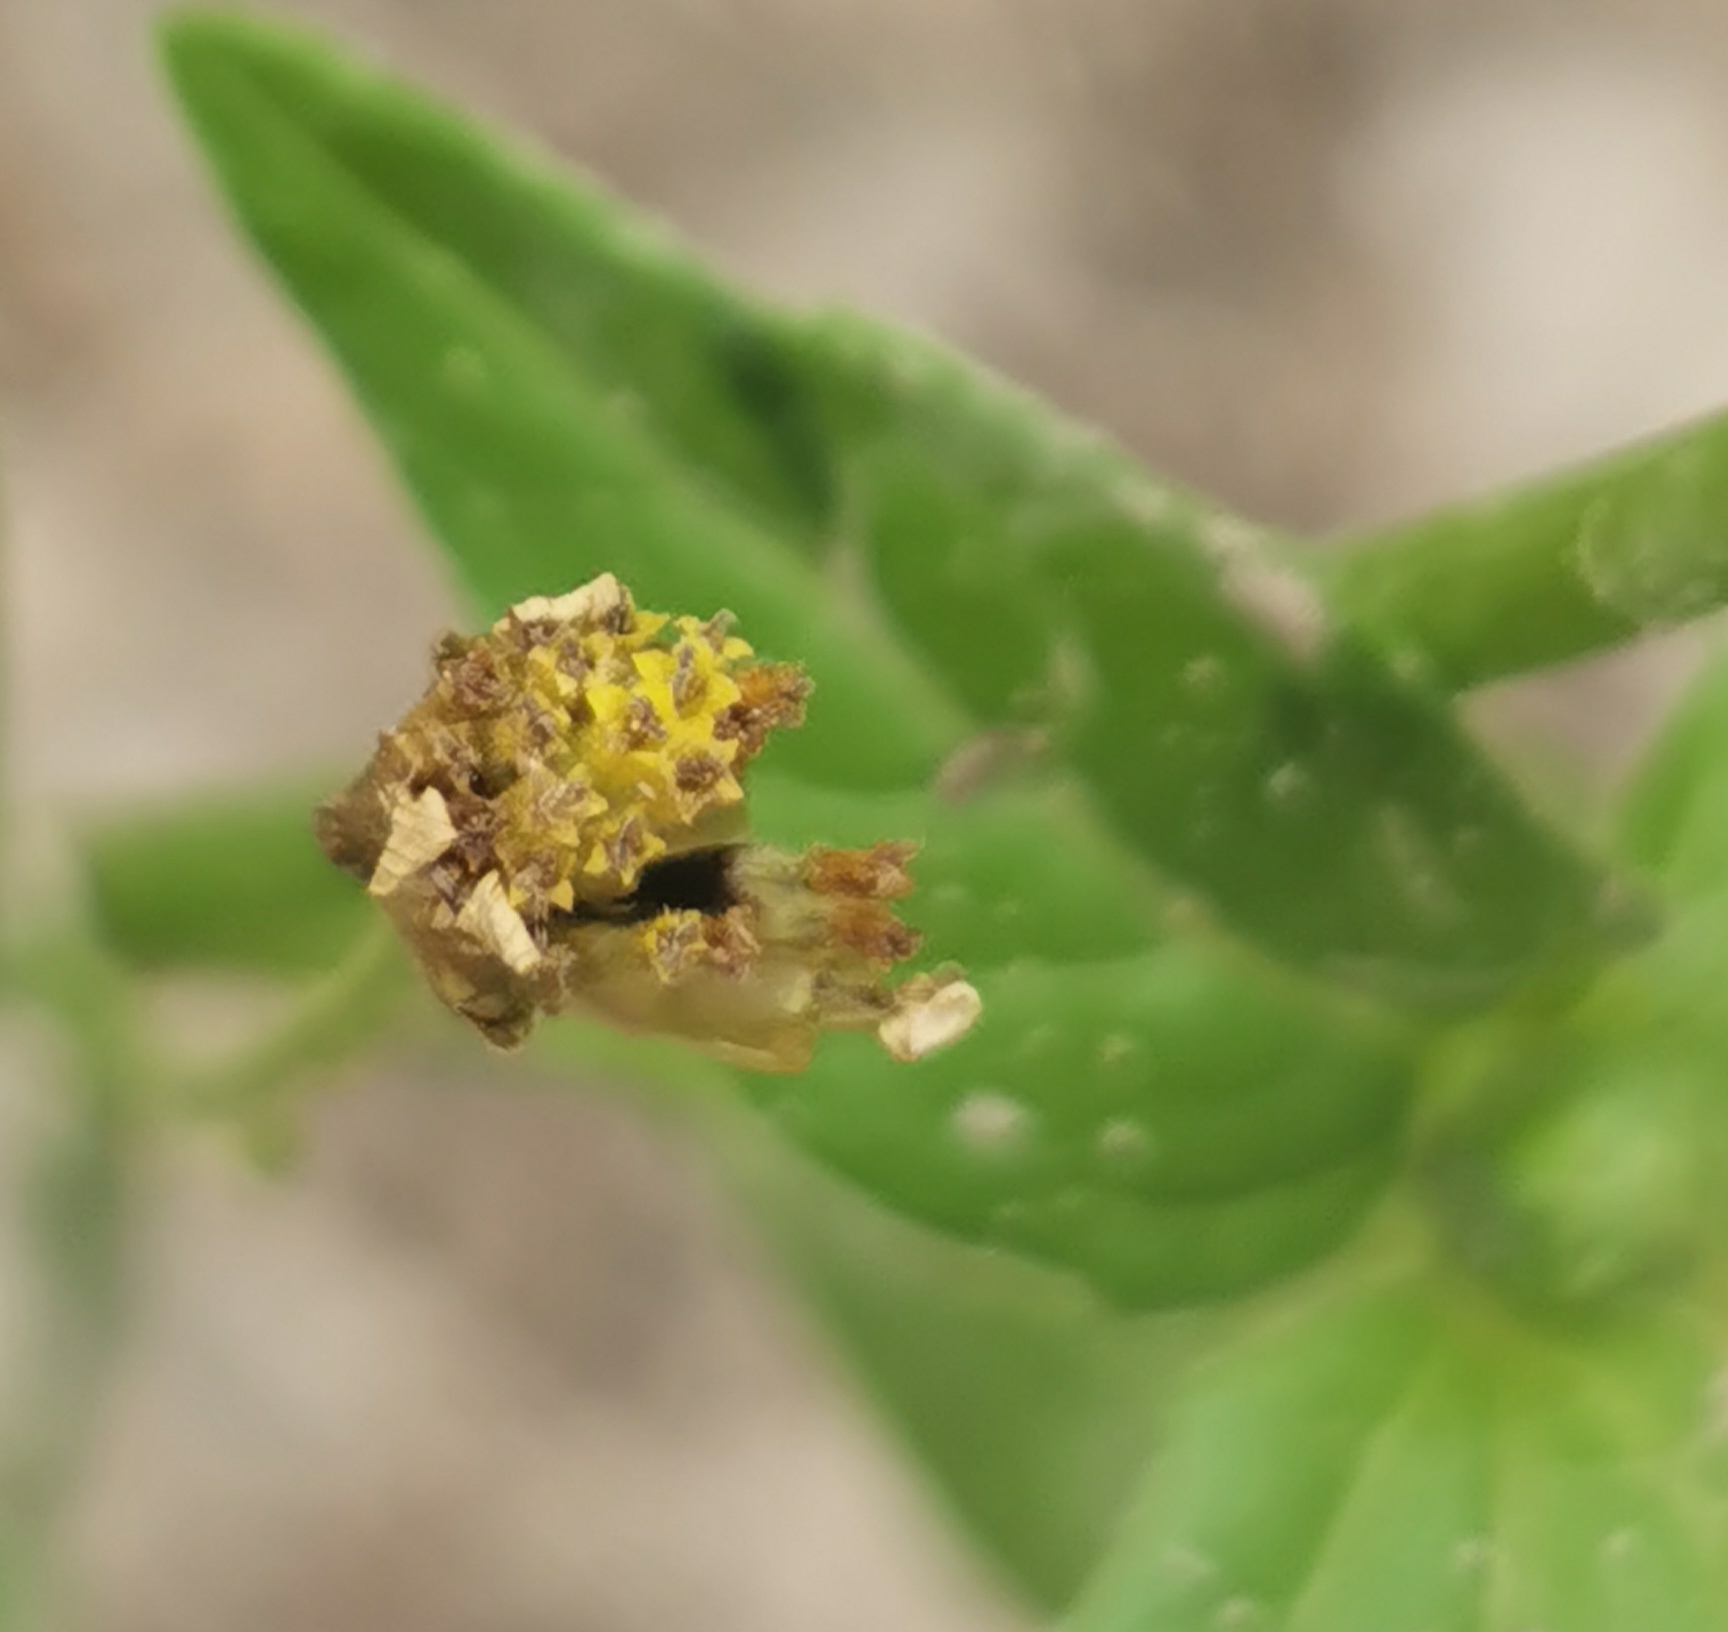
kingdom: Plantae
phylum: Tracheophyta
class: Magnoliopsida
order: Asterales
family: Asteraceae
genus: Galinsoga
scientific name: Galinsoga parviflora
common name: Gallant soldier
